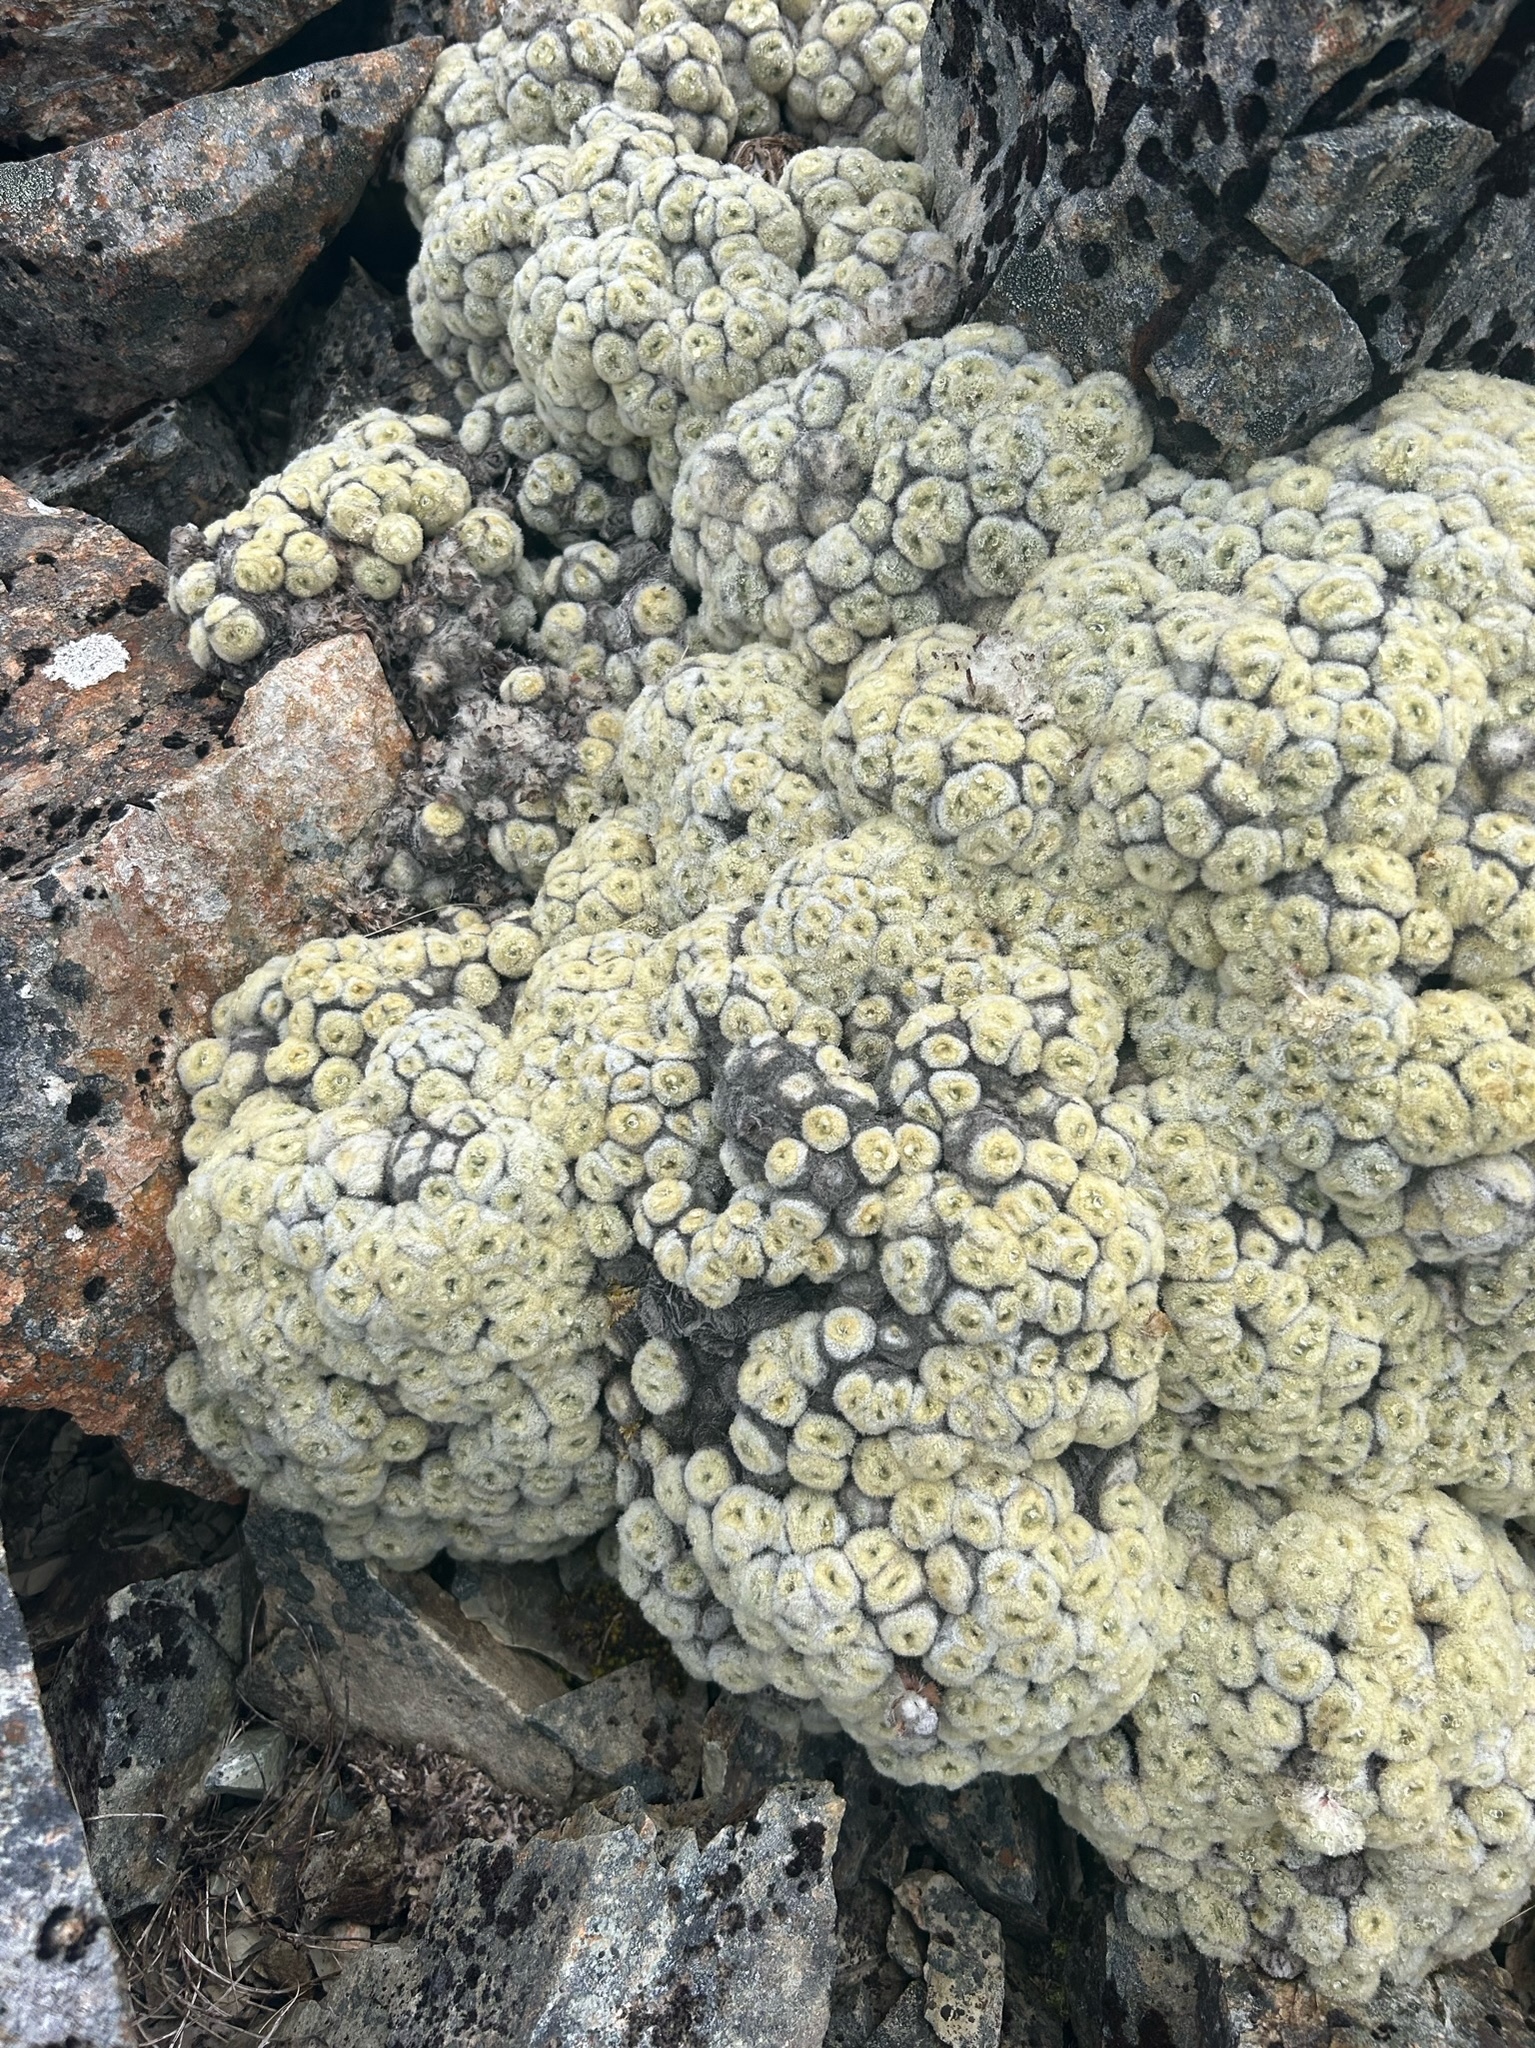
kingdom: Plantae
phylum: Tracheophyta
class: Magnoliopsida
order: Asterales
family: Asteraceae
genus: Haastia
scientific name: Haastia pulvinaris
